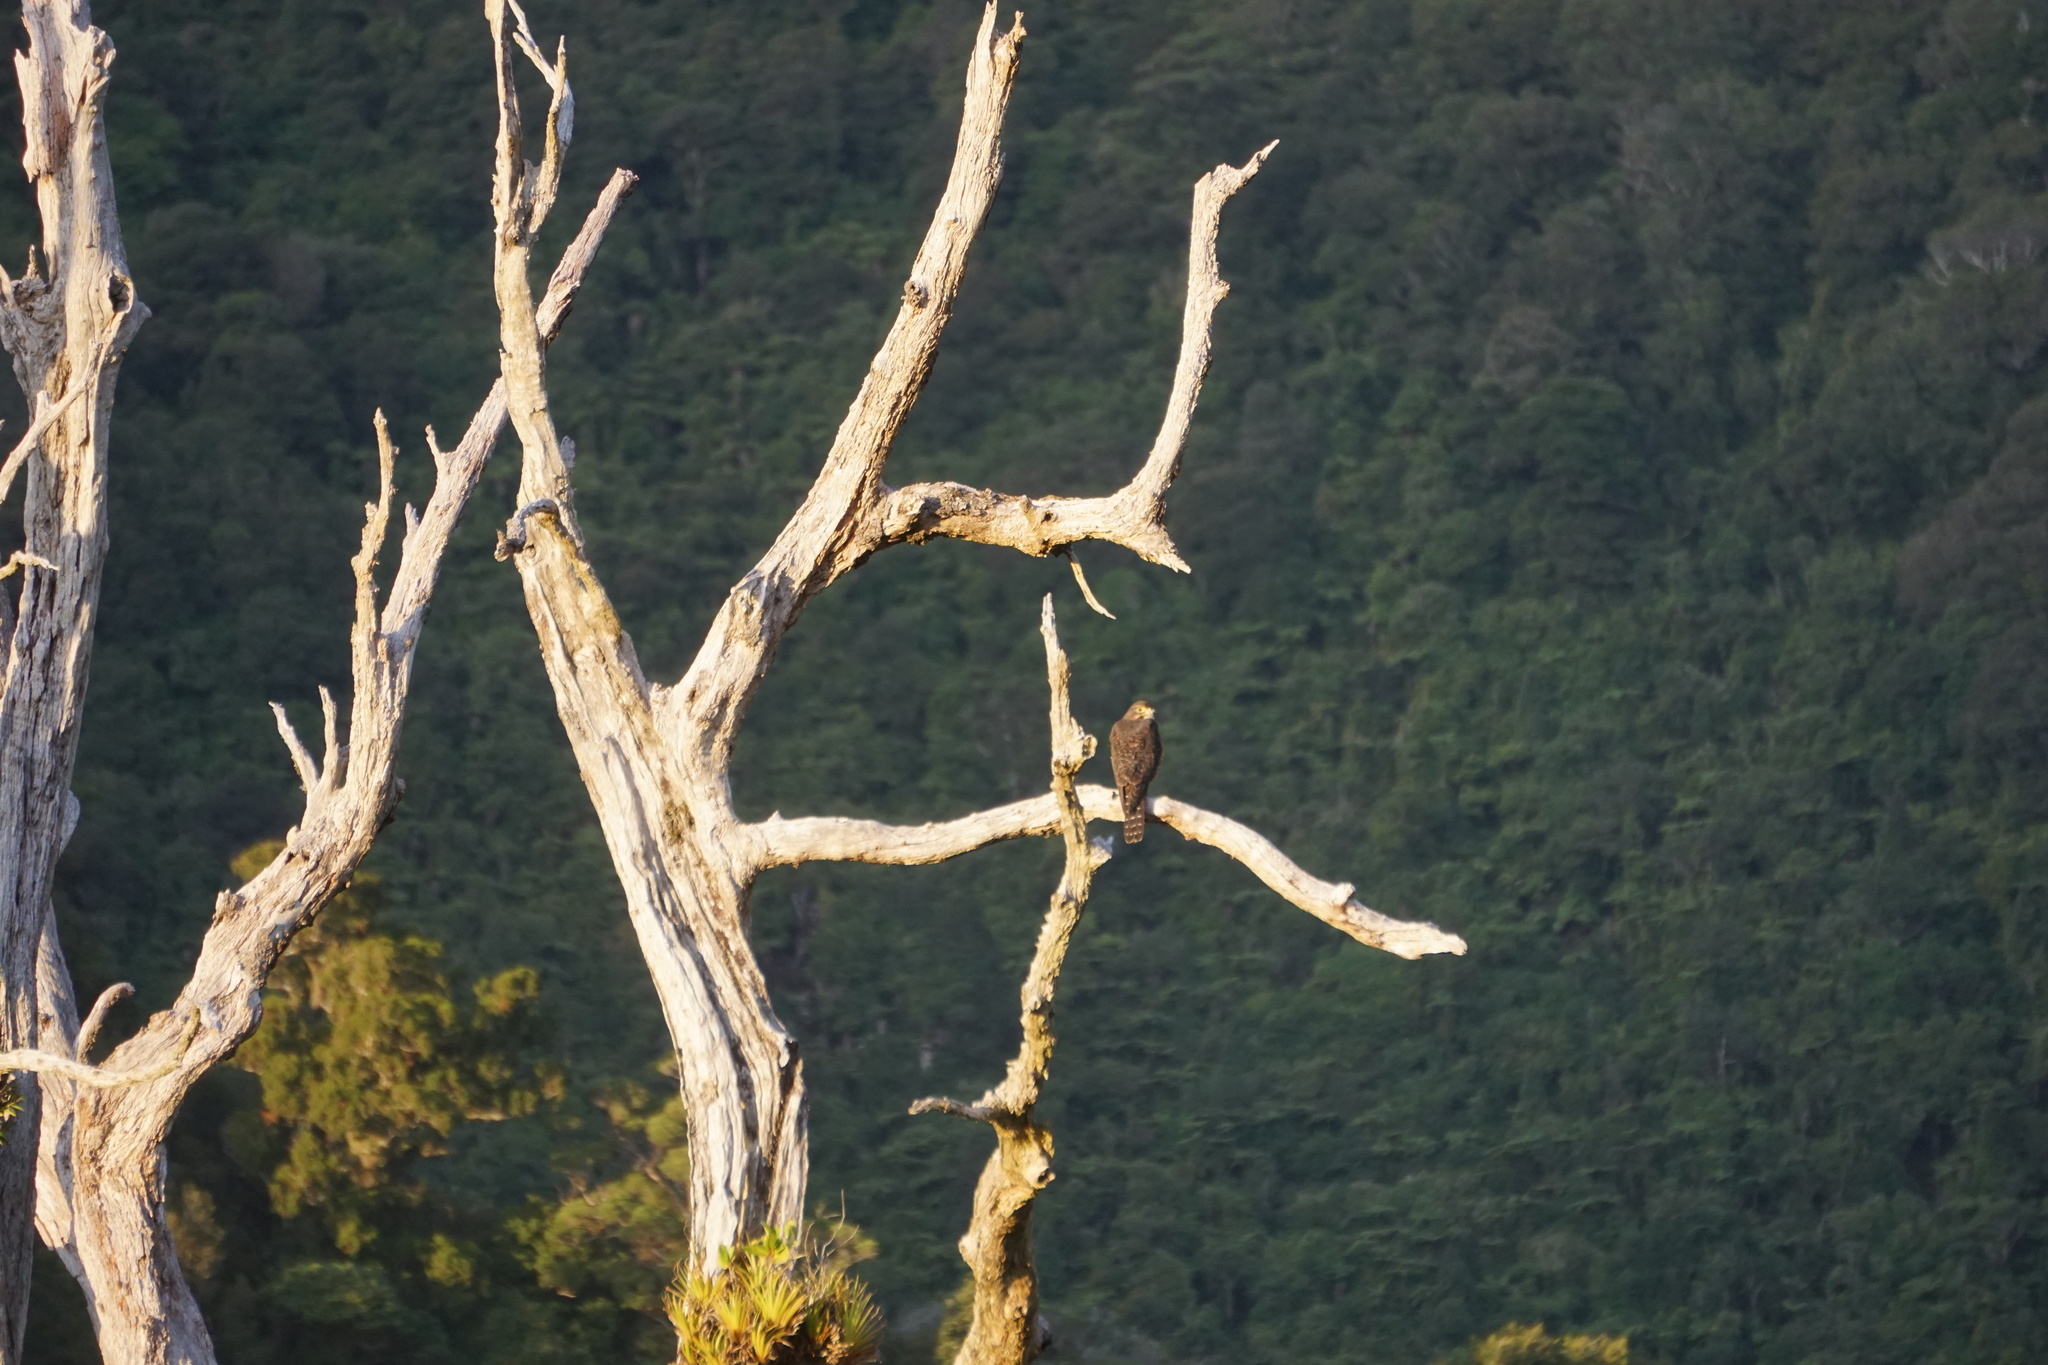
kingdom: Animalia
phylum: Chordata
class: Aves
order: Falconiformes
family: Falconidae
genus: Falco
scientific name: Falco novaeseelandiae
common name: New zealand falcon
